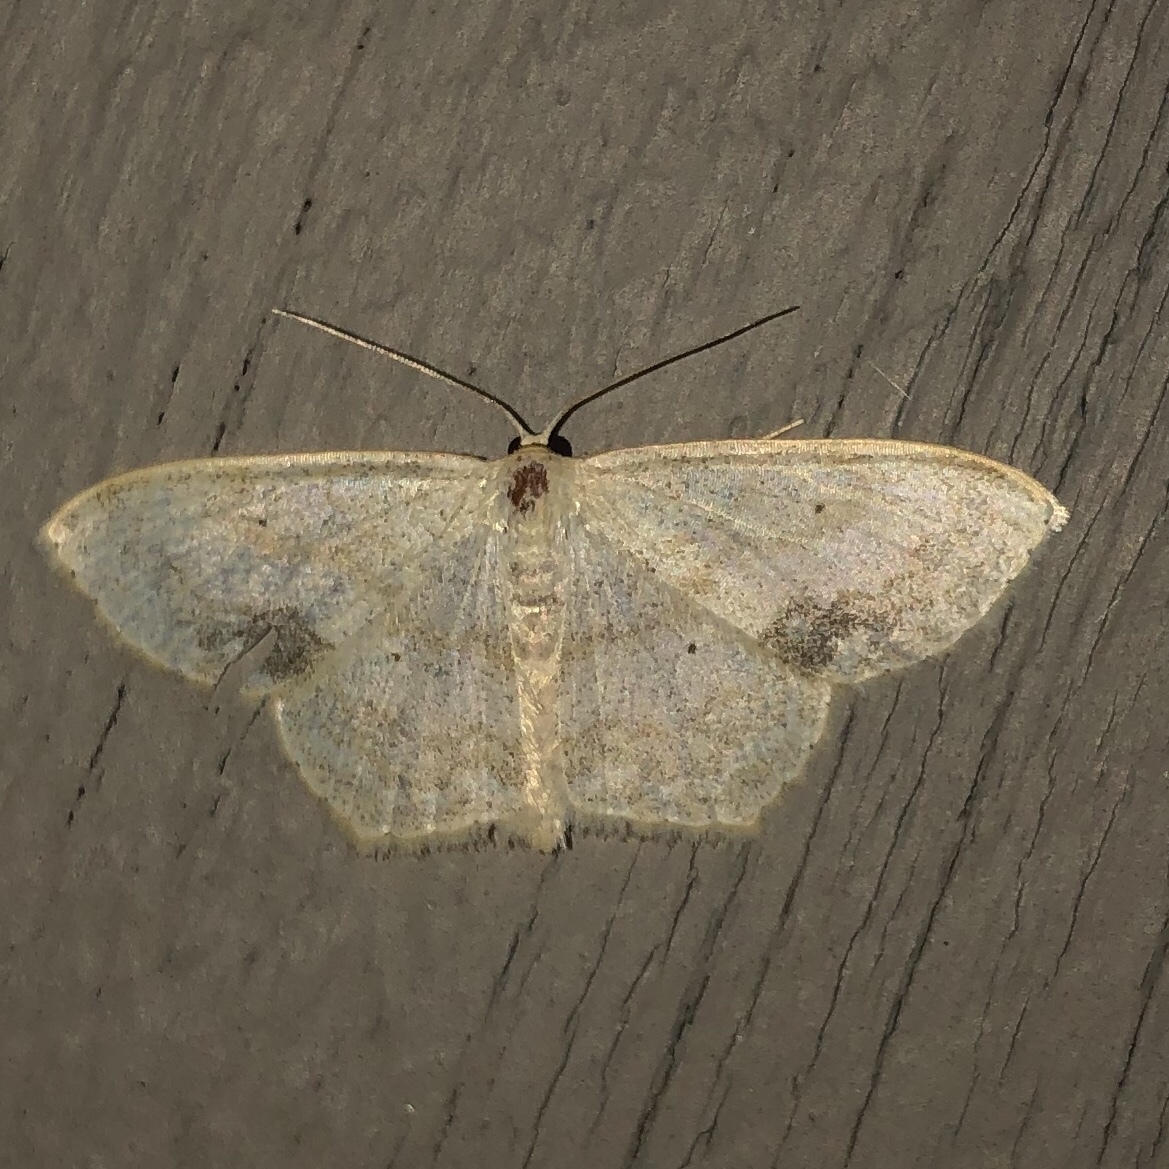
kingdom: Animalia
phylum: Arthropoda
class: Insecta
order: Lepidoptera
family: Geometridae
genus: Scopula
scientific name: Scopula limboundata
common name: Large lace border
